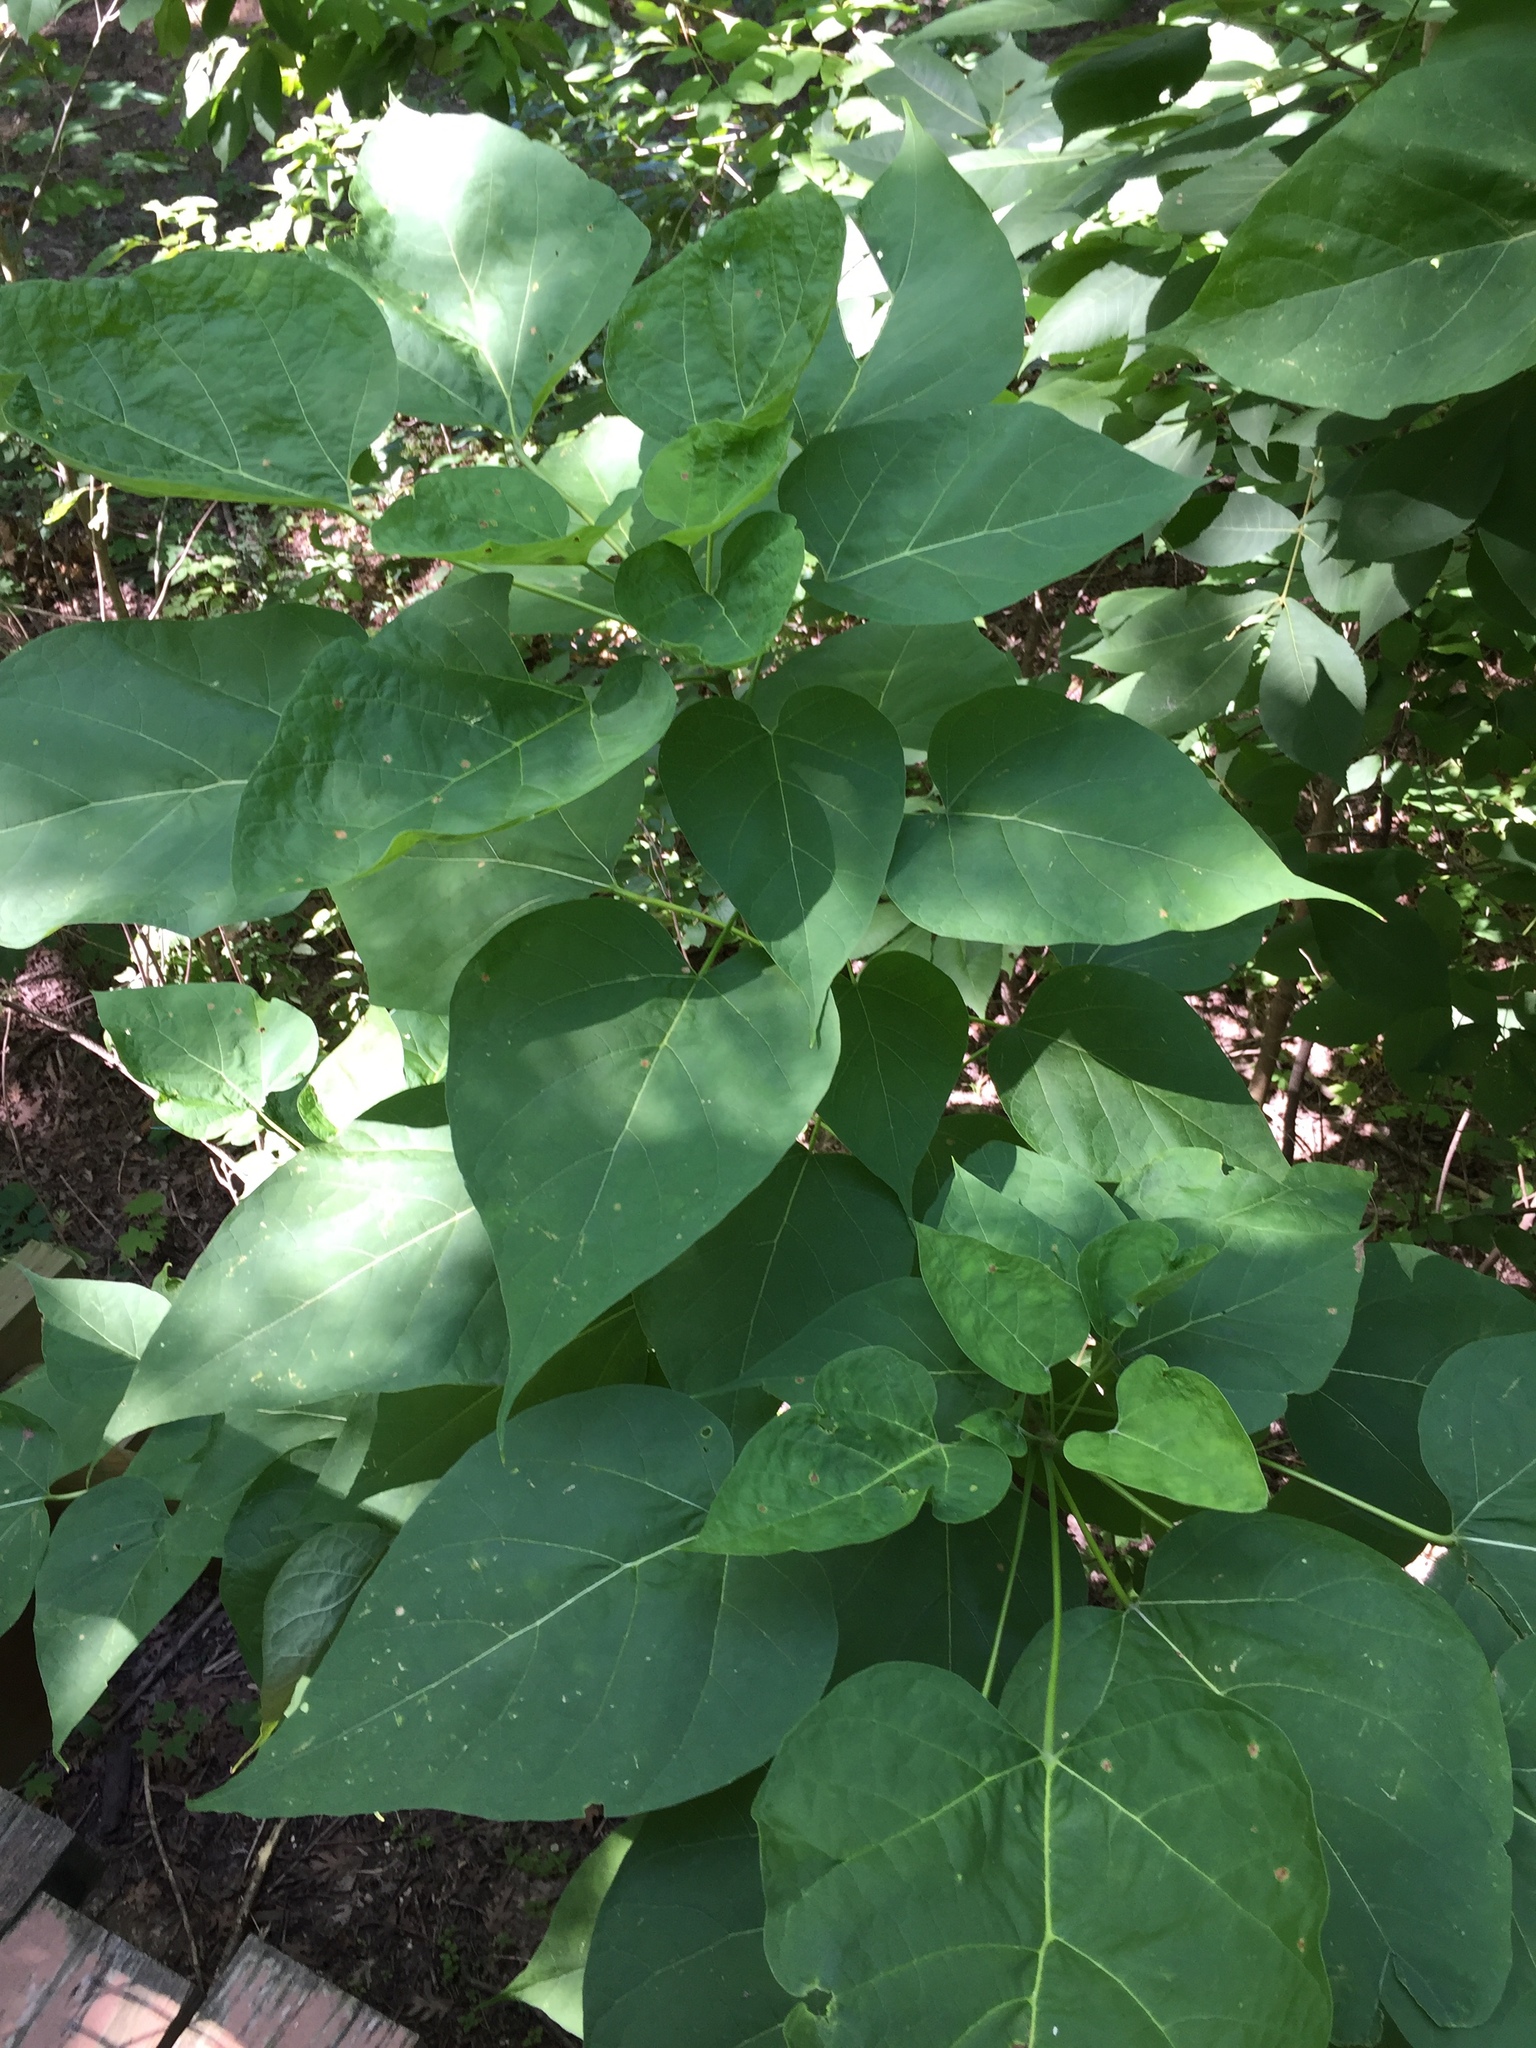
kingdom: Plantae
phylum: Tracheophyta
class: Magnoliopsida
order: Lamiales
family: Bignoniaceae
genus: Catalpa
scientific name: Catalpa speciosa
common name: Northern catalpa
